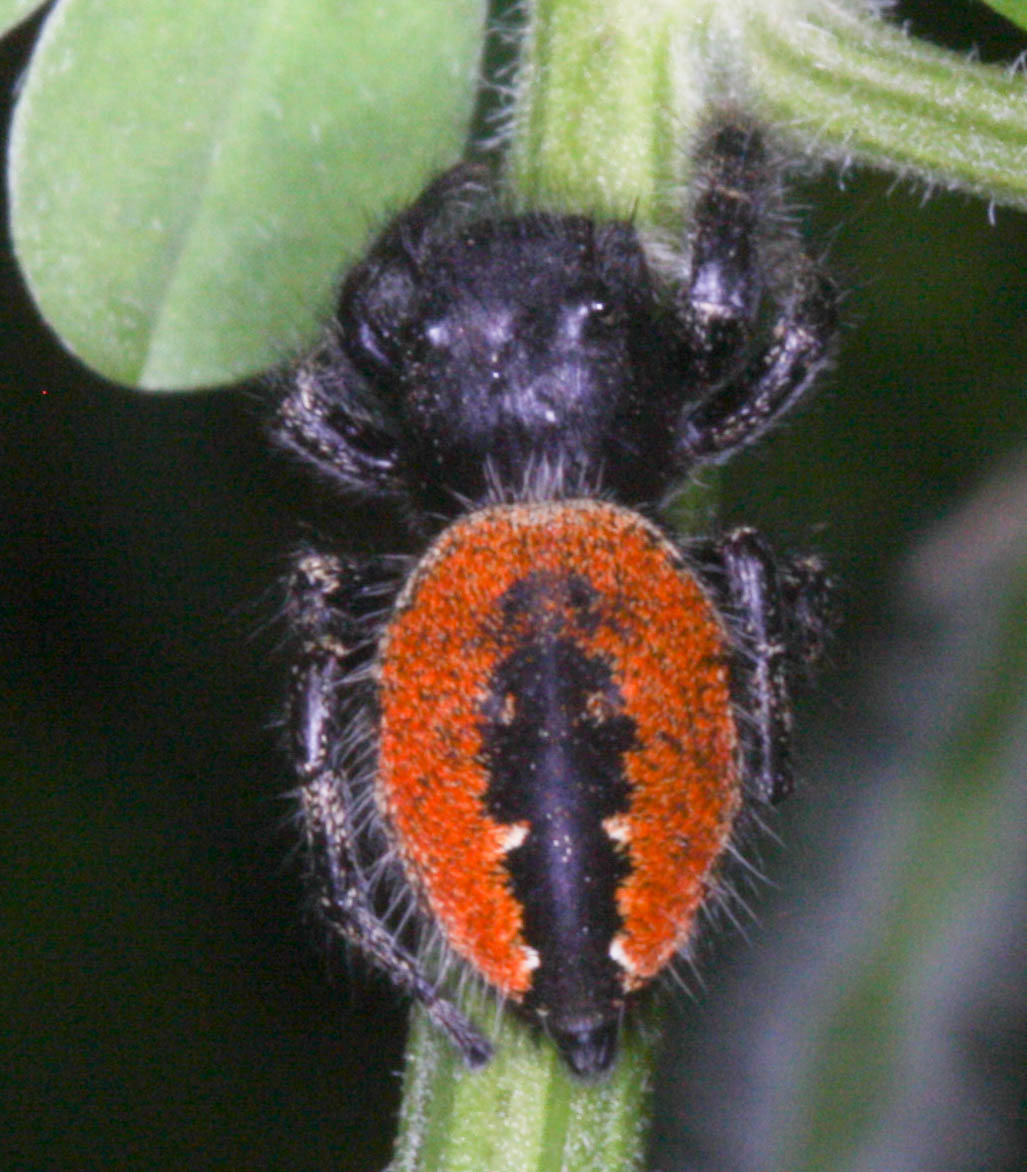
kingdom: Animalia
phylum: Arthropoda
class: Arachnida
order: Araneae
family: Salticidae
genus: Phidippus
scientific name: Phidippus johnsoni
